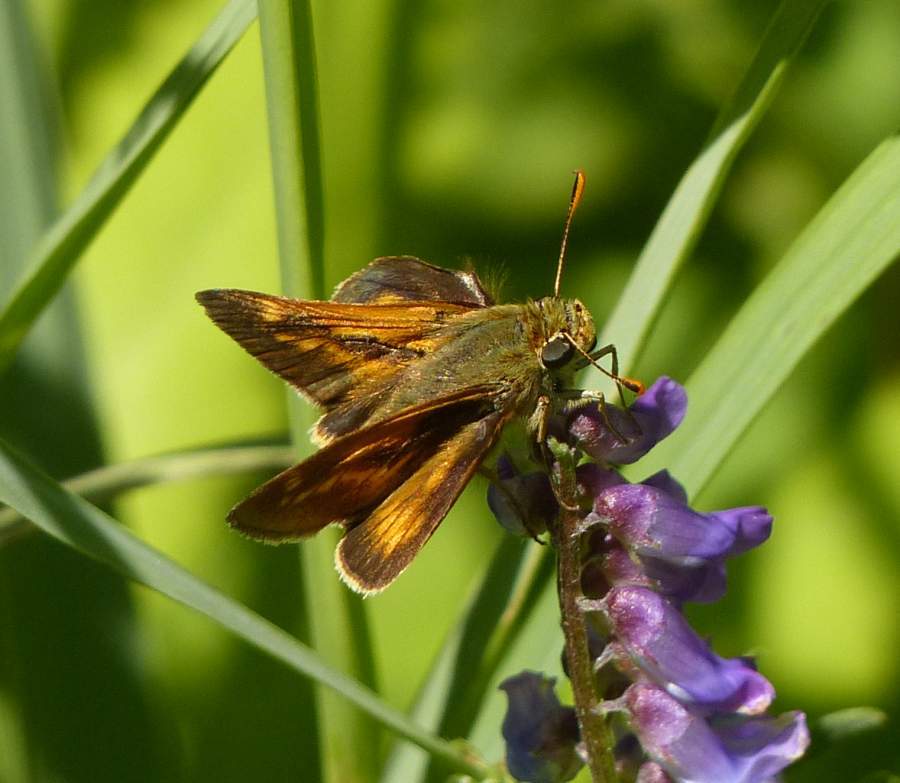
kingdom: Animalia
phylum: Arthropoda
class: Insecta
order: Lepidoptera
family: Hesperiidae
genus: Polites
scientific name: Polites mystic
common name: Long dash
